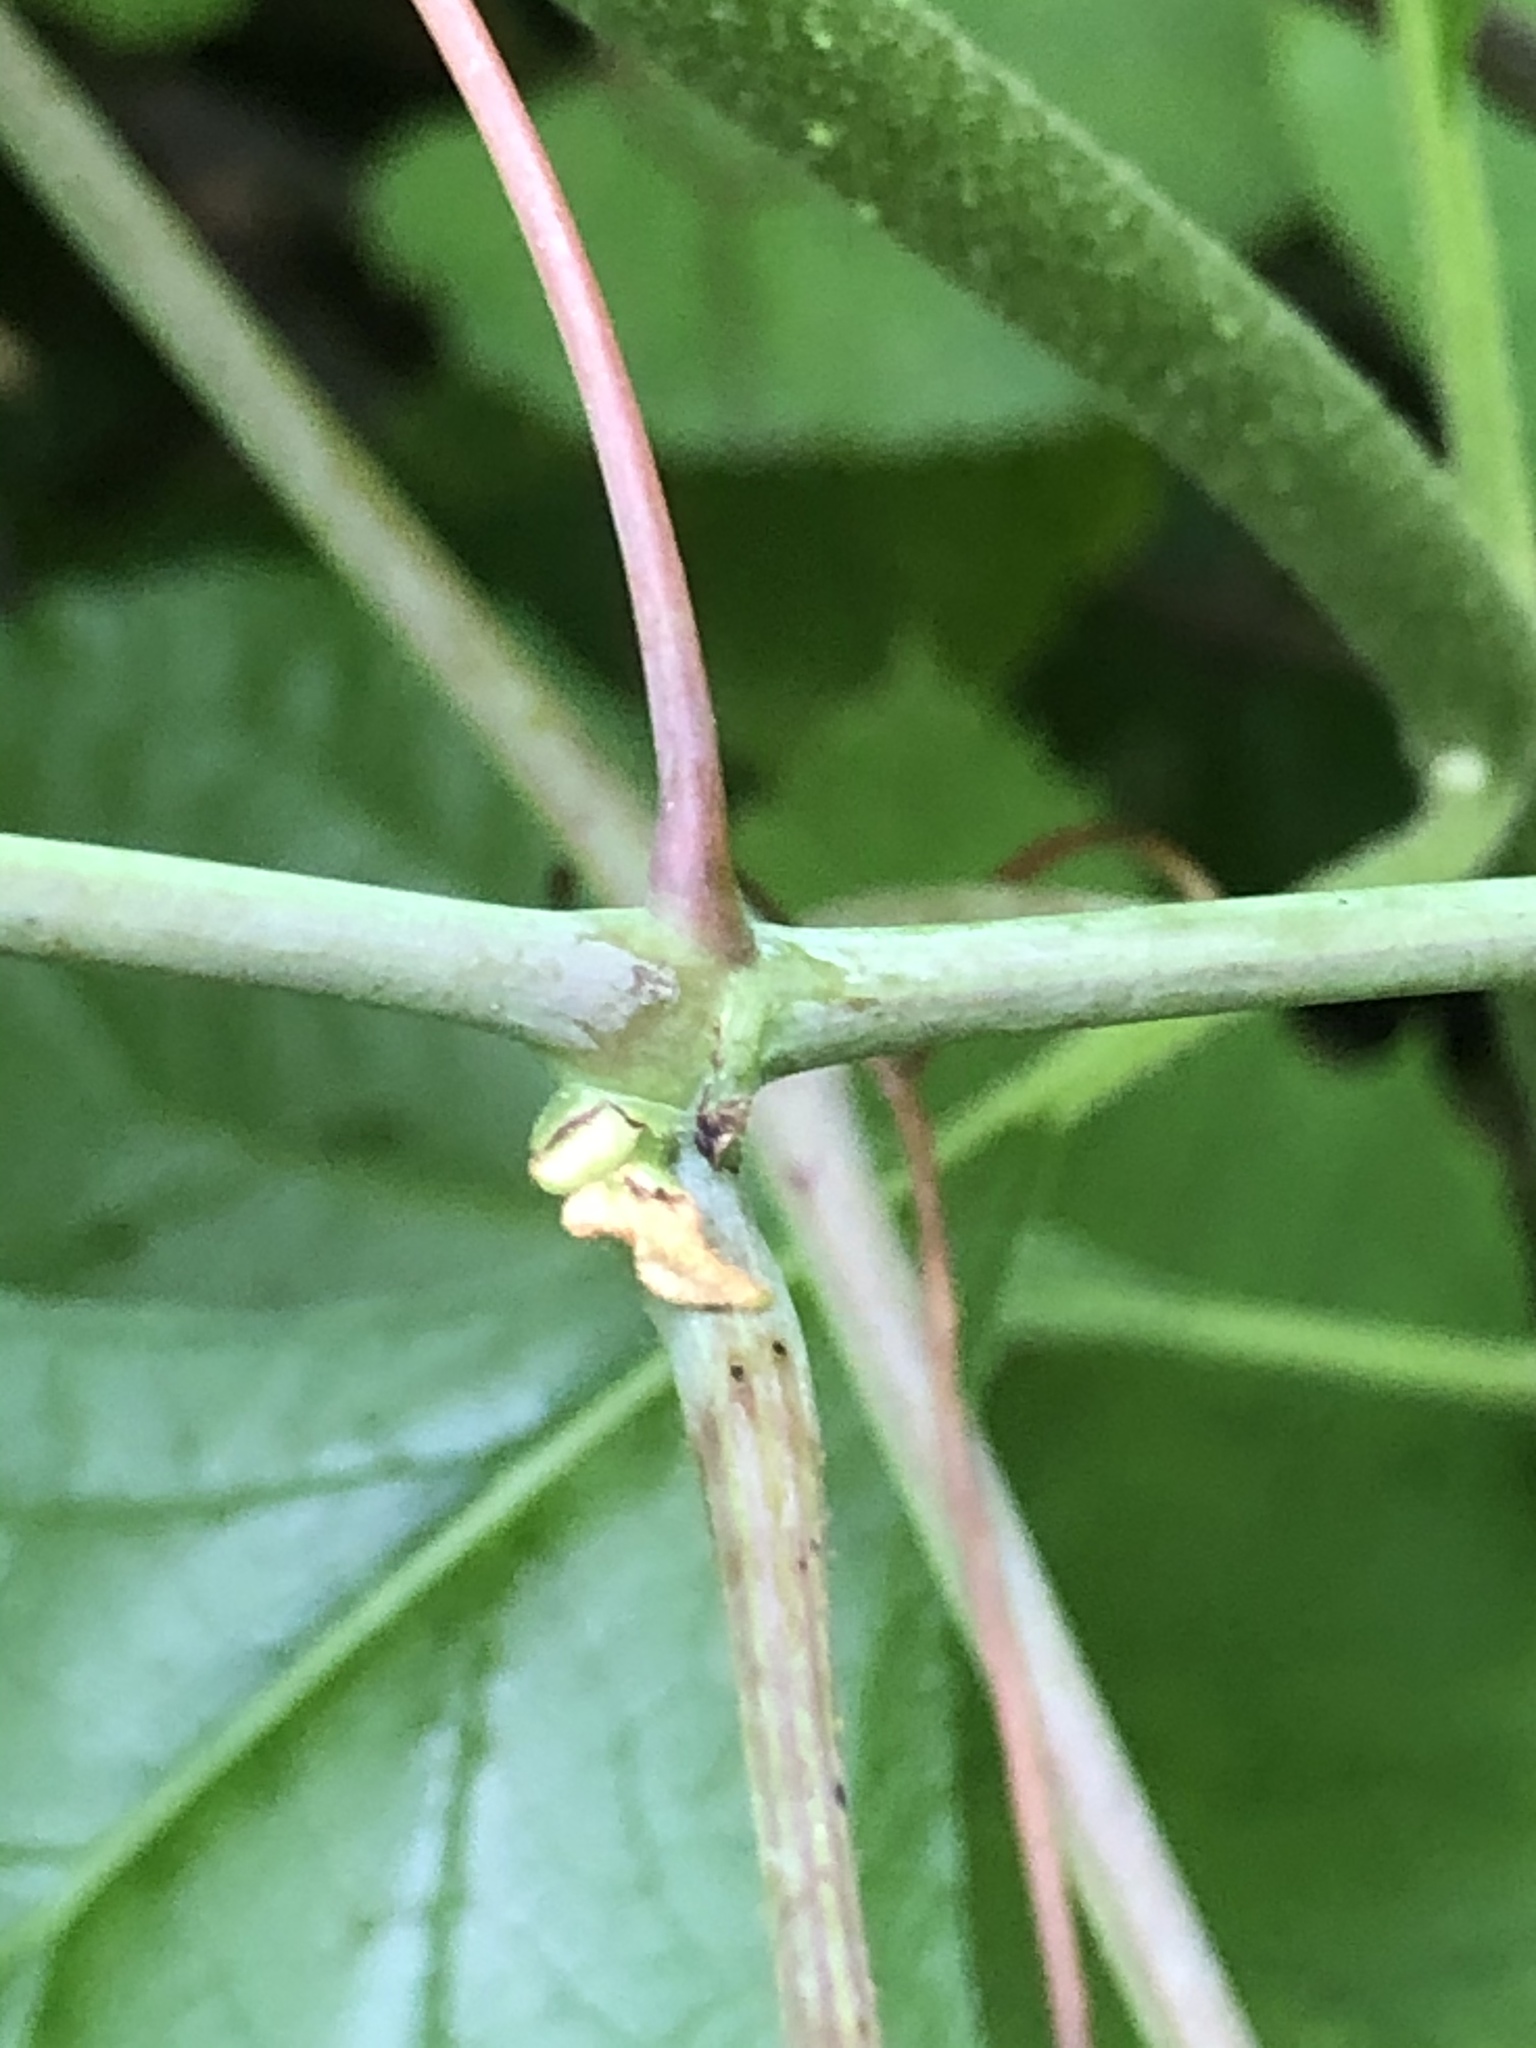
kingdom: Plantae
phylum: Tracheophyta
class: Magnoliopsida
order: Vitales
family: Vitaceae
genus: Vitis
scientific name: Vitis aestivalis
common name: Pigeon grape
